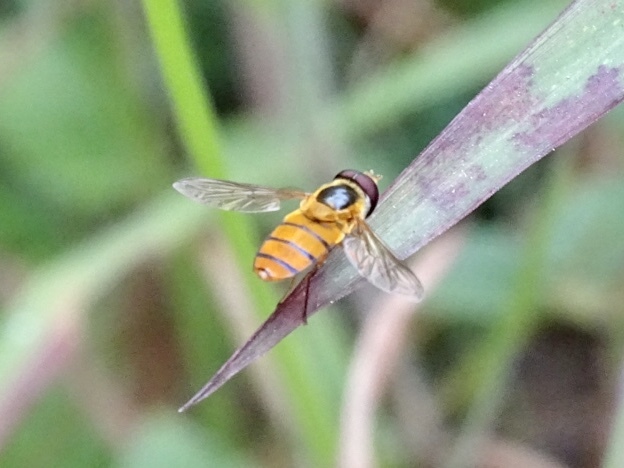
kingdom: Animalia
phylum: Arthropoda
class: Insecta
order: Diptera
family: Syrphidae
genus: Asarkina
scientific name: Asarkina porcina
